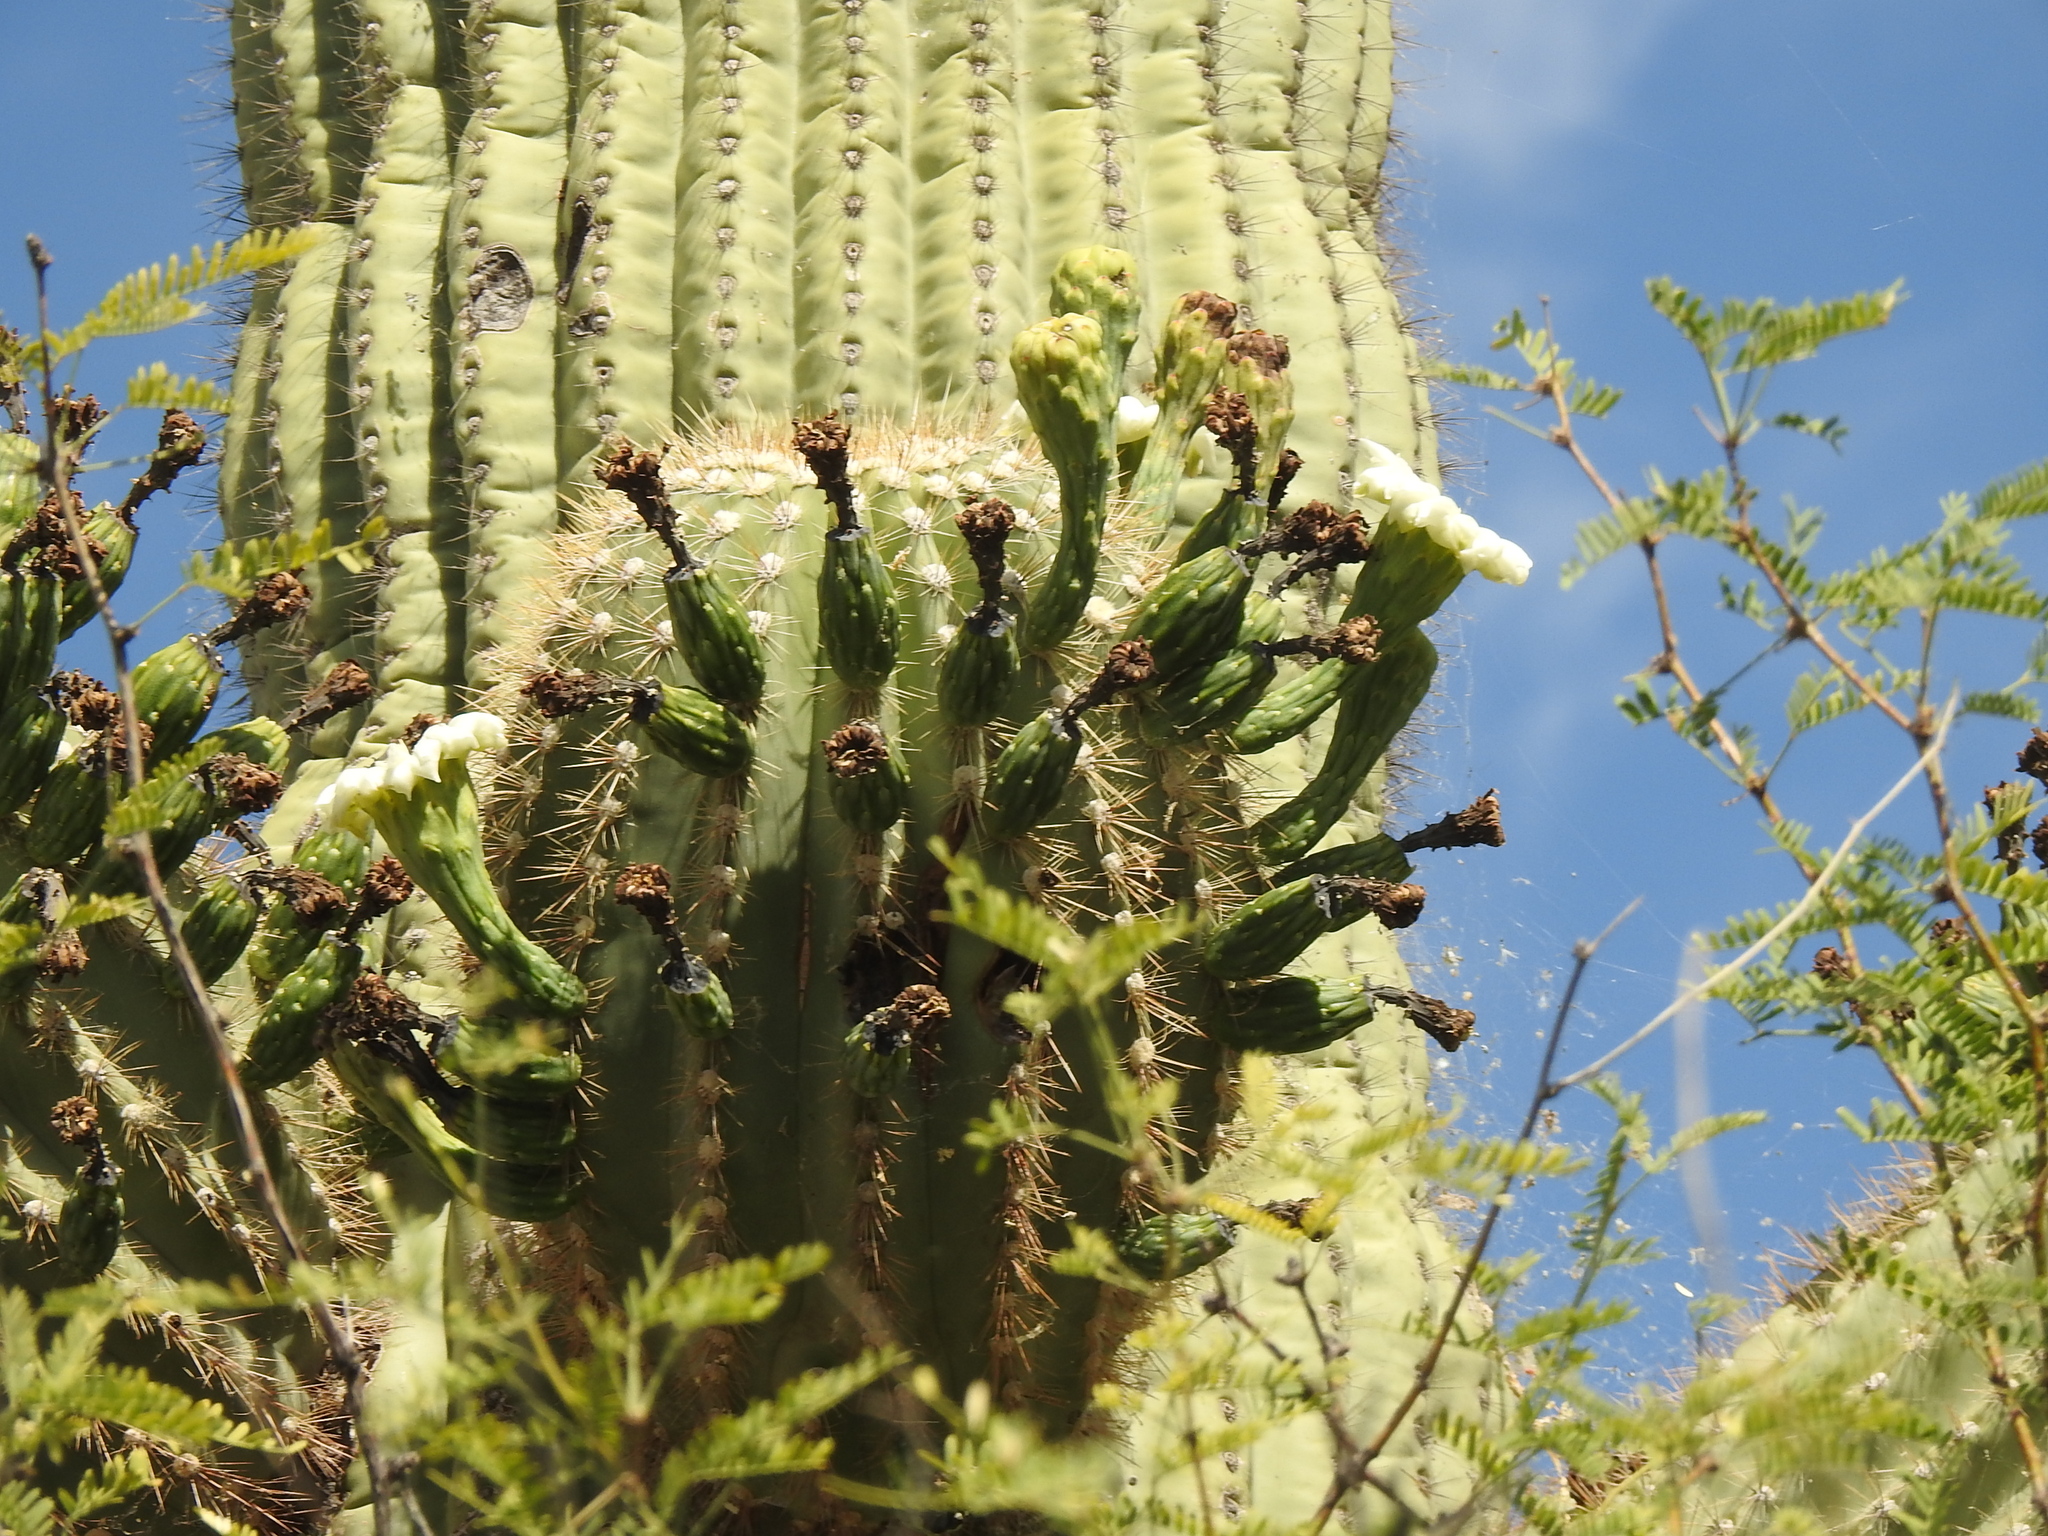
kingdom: Plantae
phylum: Tracheophyta
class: Magnoliopsida
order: Caryophyllales
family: Cactaceae
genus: Carnegiea
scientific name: Carnegiea gigantea
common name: Saguaro
